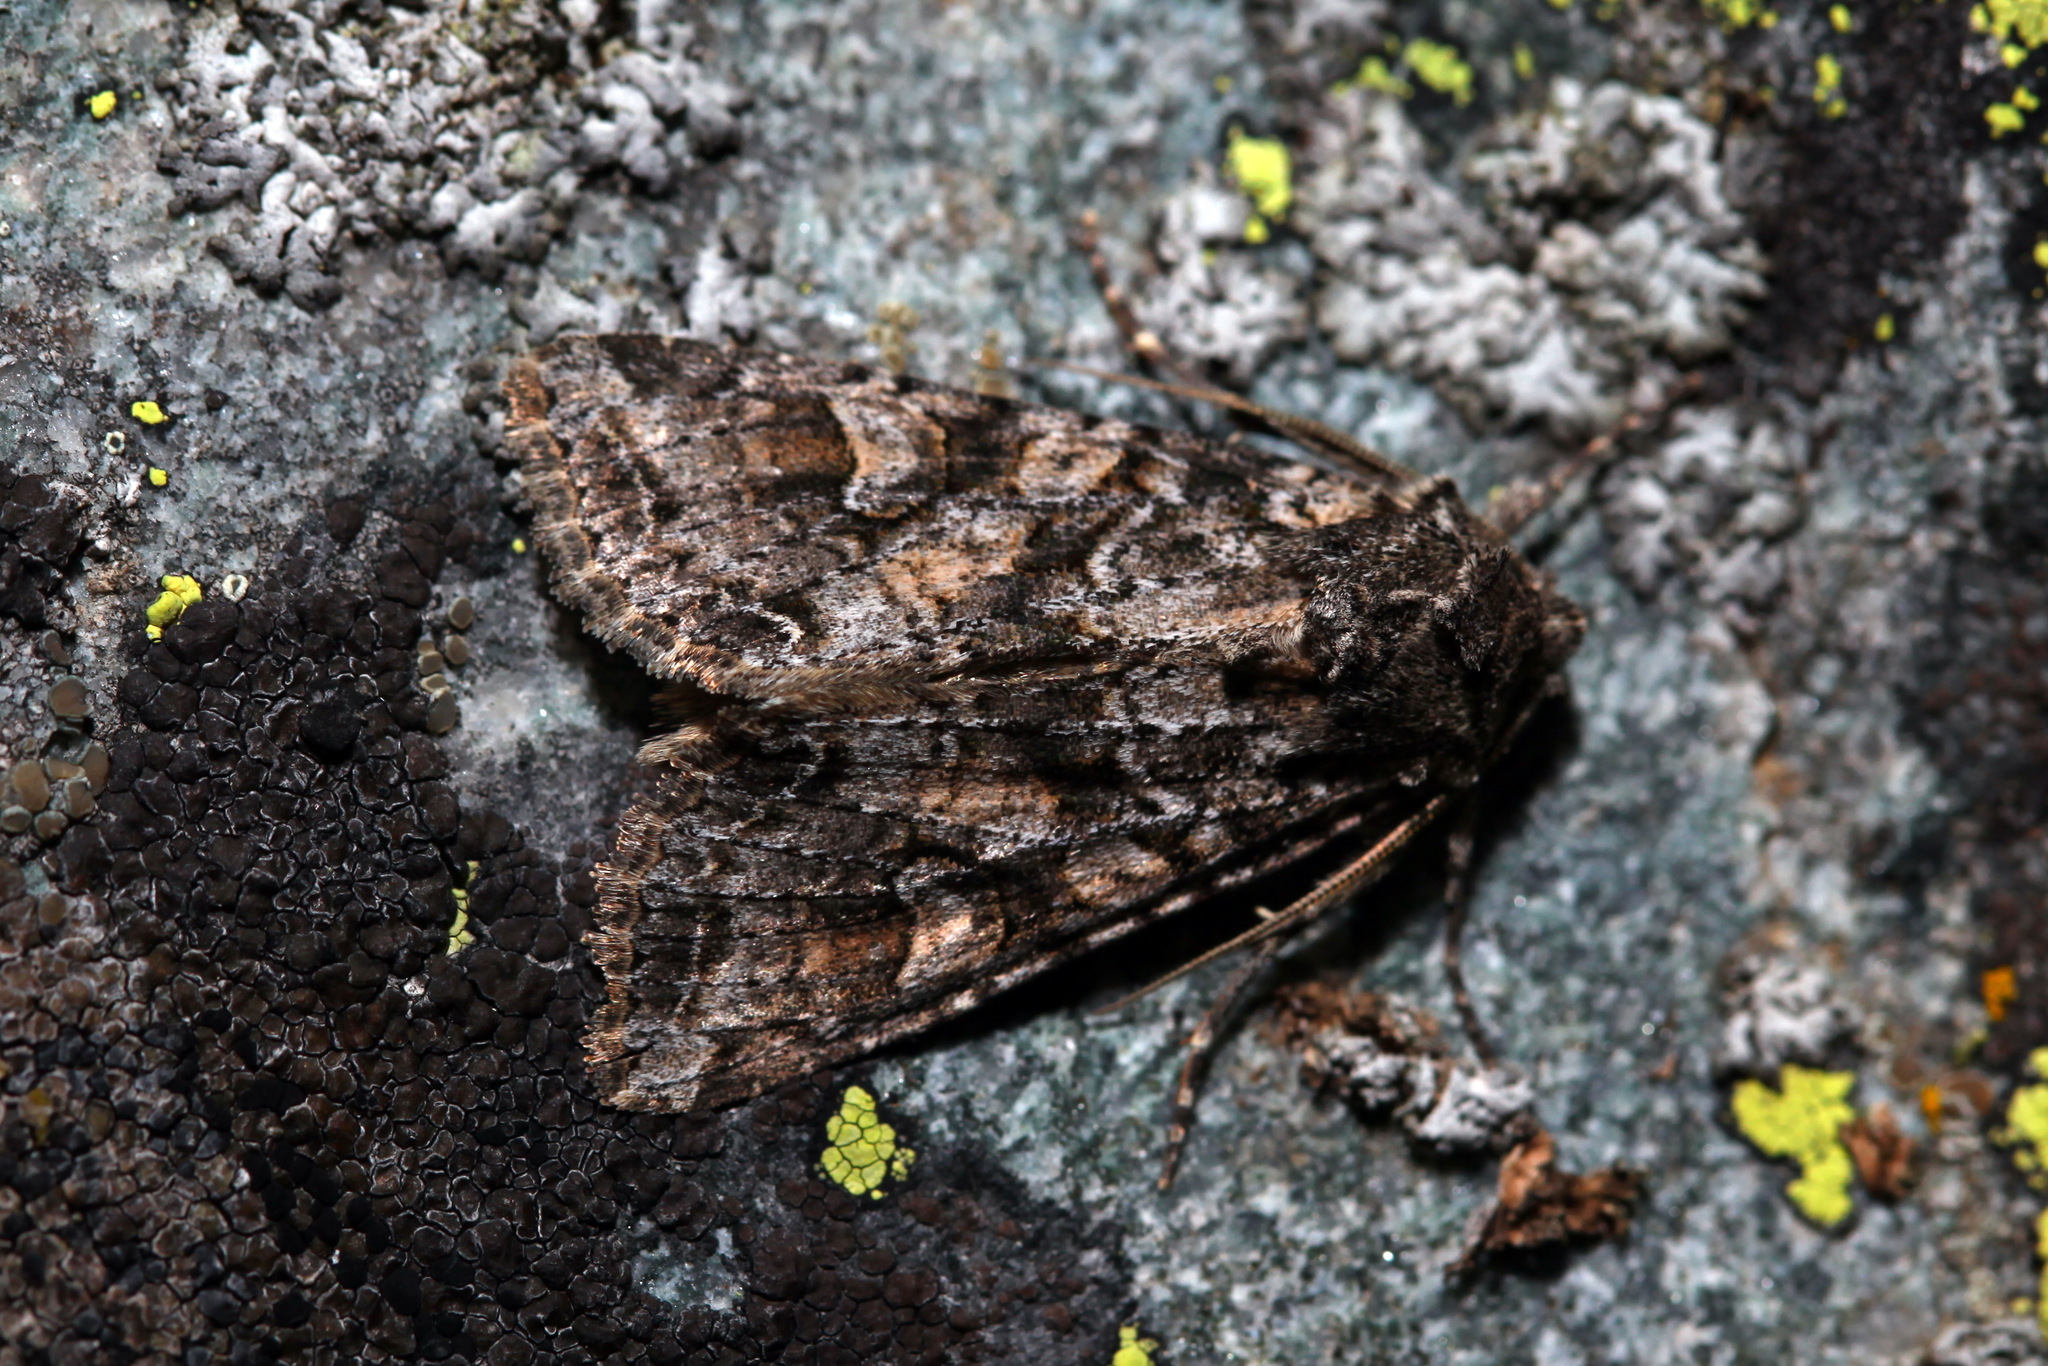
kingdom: Animalia
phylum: Arthropoda
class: Insecta
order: Lepidoptera
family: Noctuidae
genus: Polia
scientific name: Polia subcontigua
